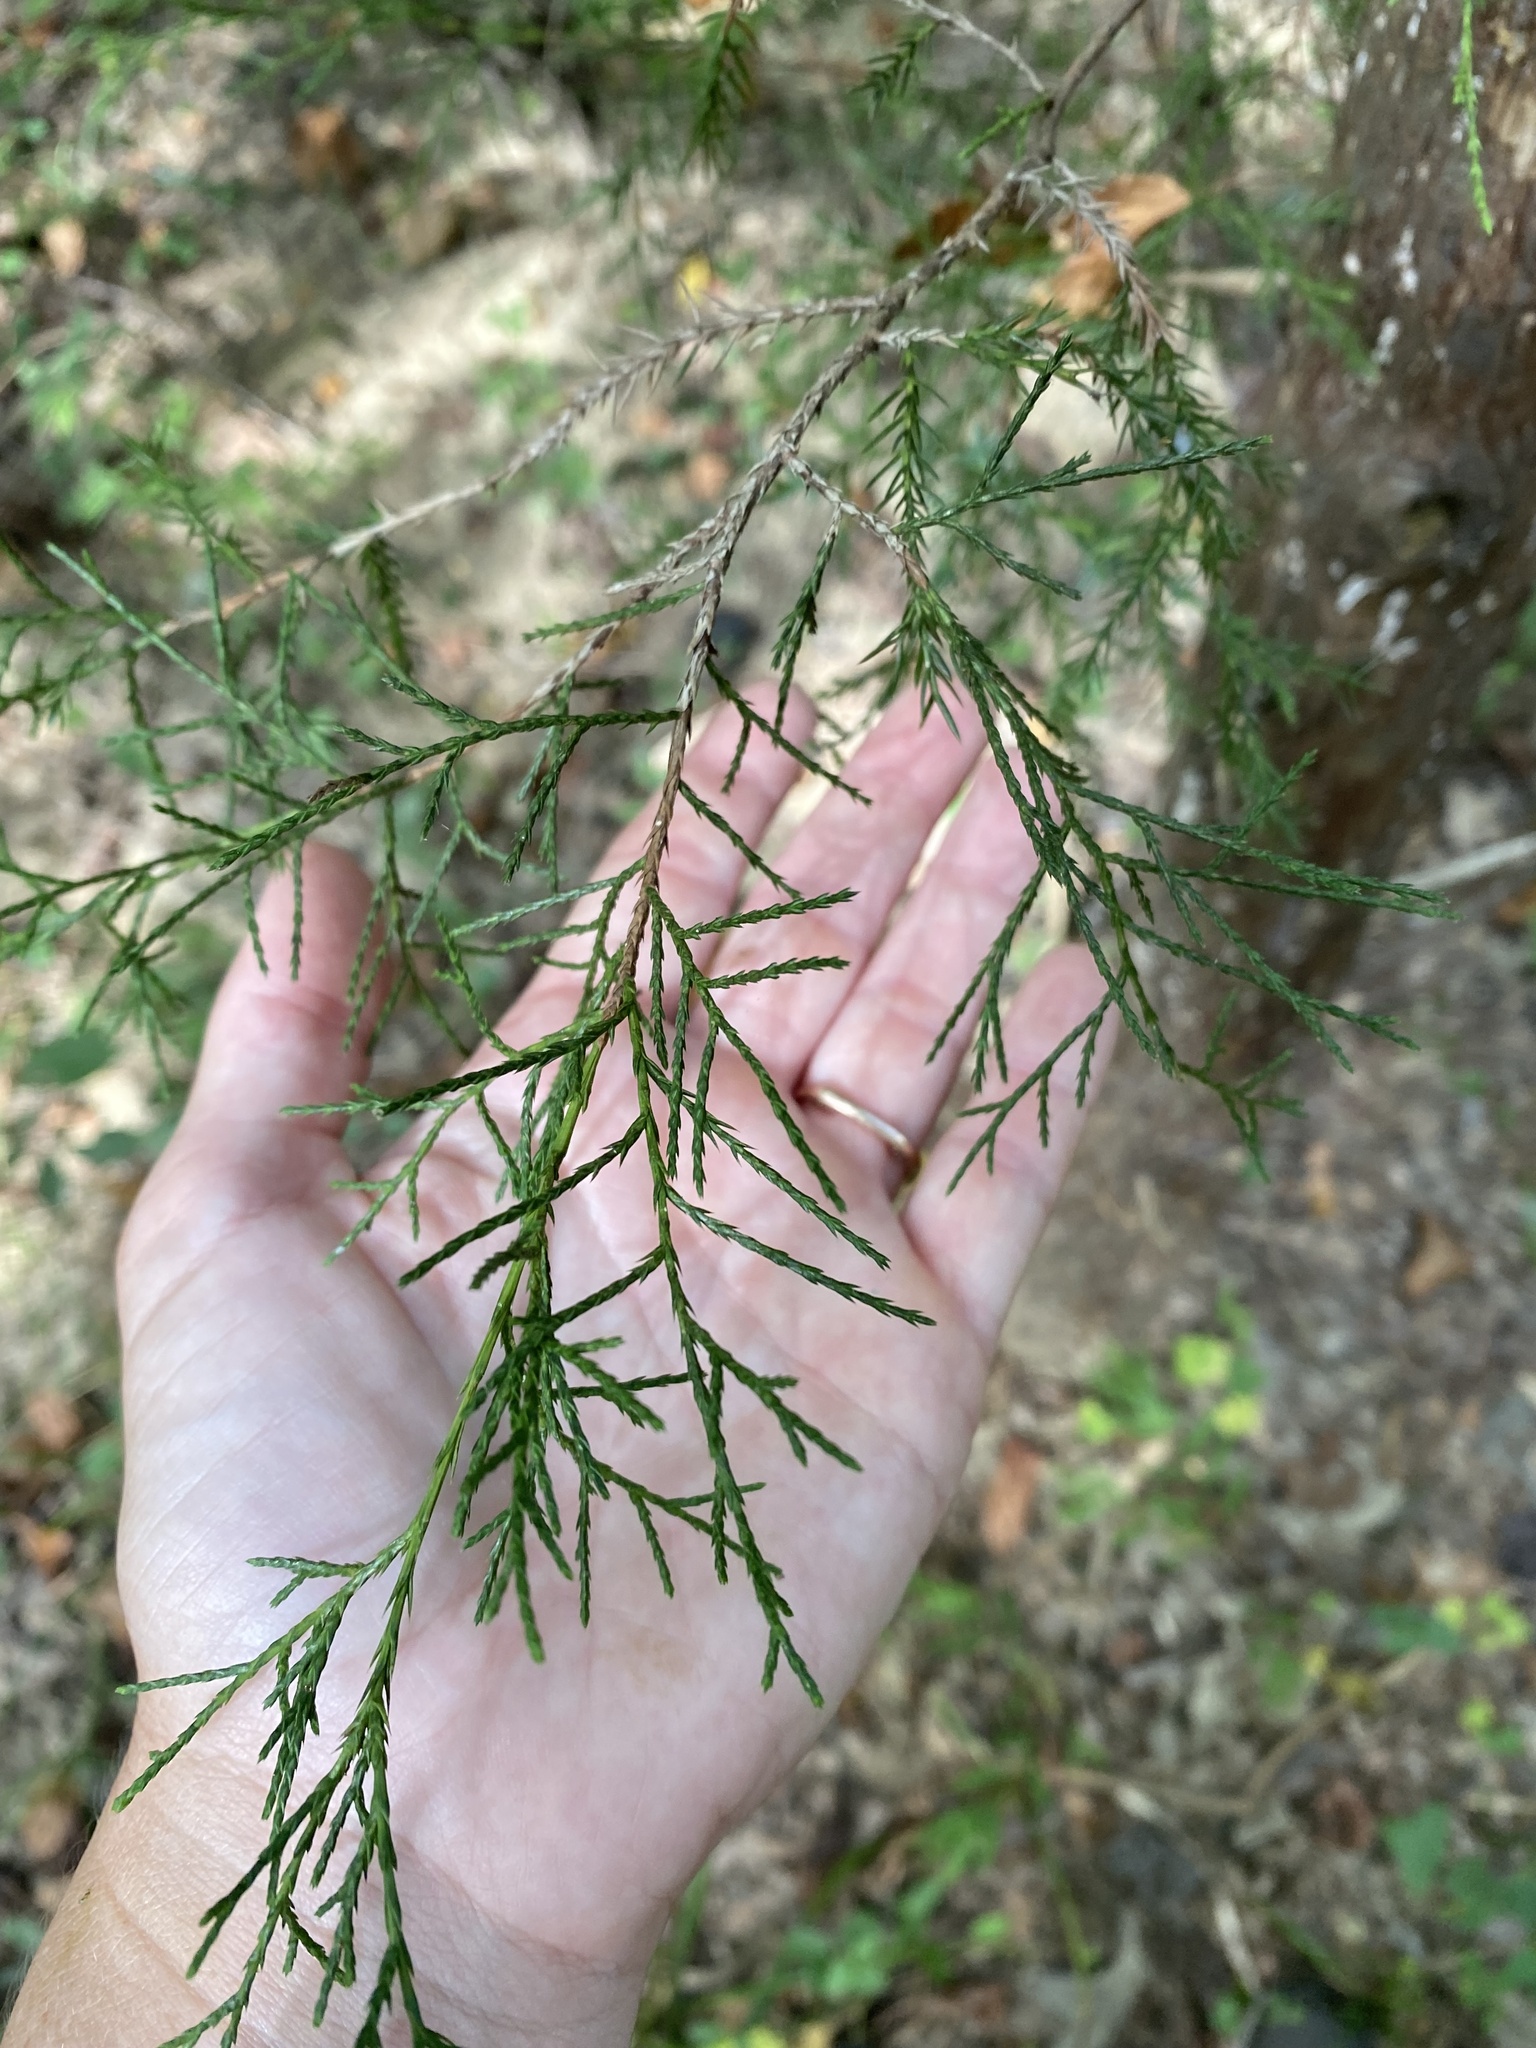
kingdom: Plantae
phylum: Tracheophyta
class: Pinopsida
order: Pinales
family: Cupressaceae
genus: Juniperus
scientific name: Juniperus virginiana
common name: Red juniper
